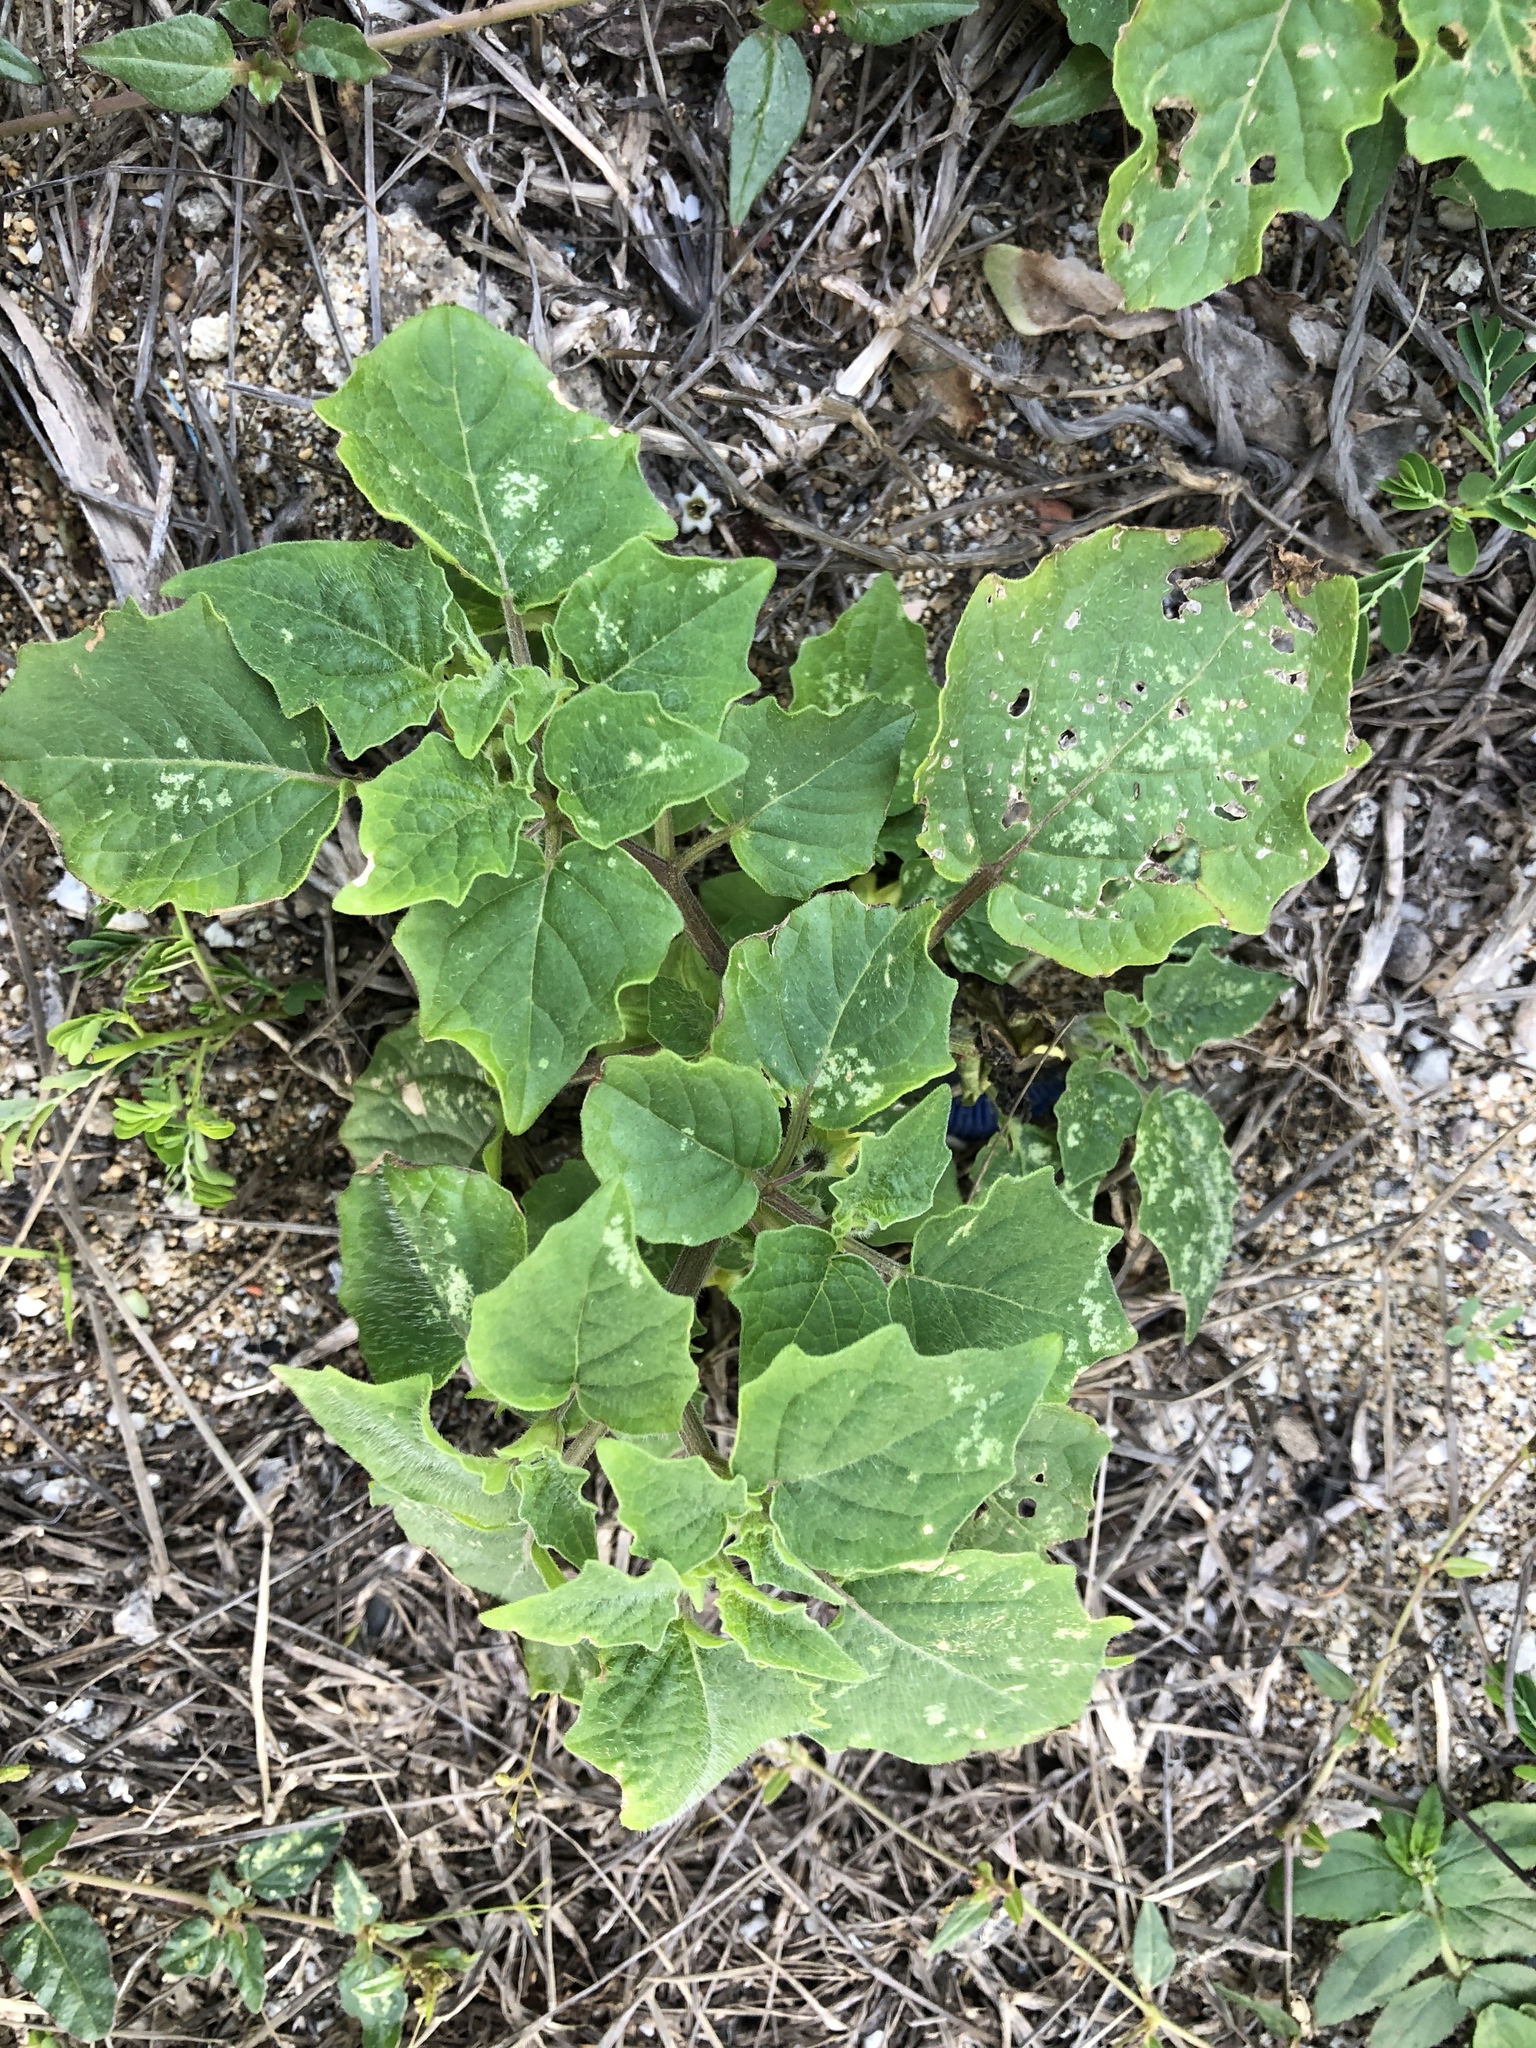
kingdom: Plantae
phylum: Tracheophyta
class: Magnoliopsida
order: Solanales
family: Solanaceae
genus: Physalis
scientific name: Physalis angulata
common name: Angular winter-cherry
